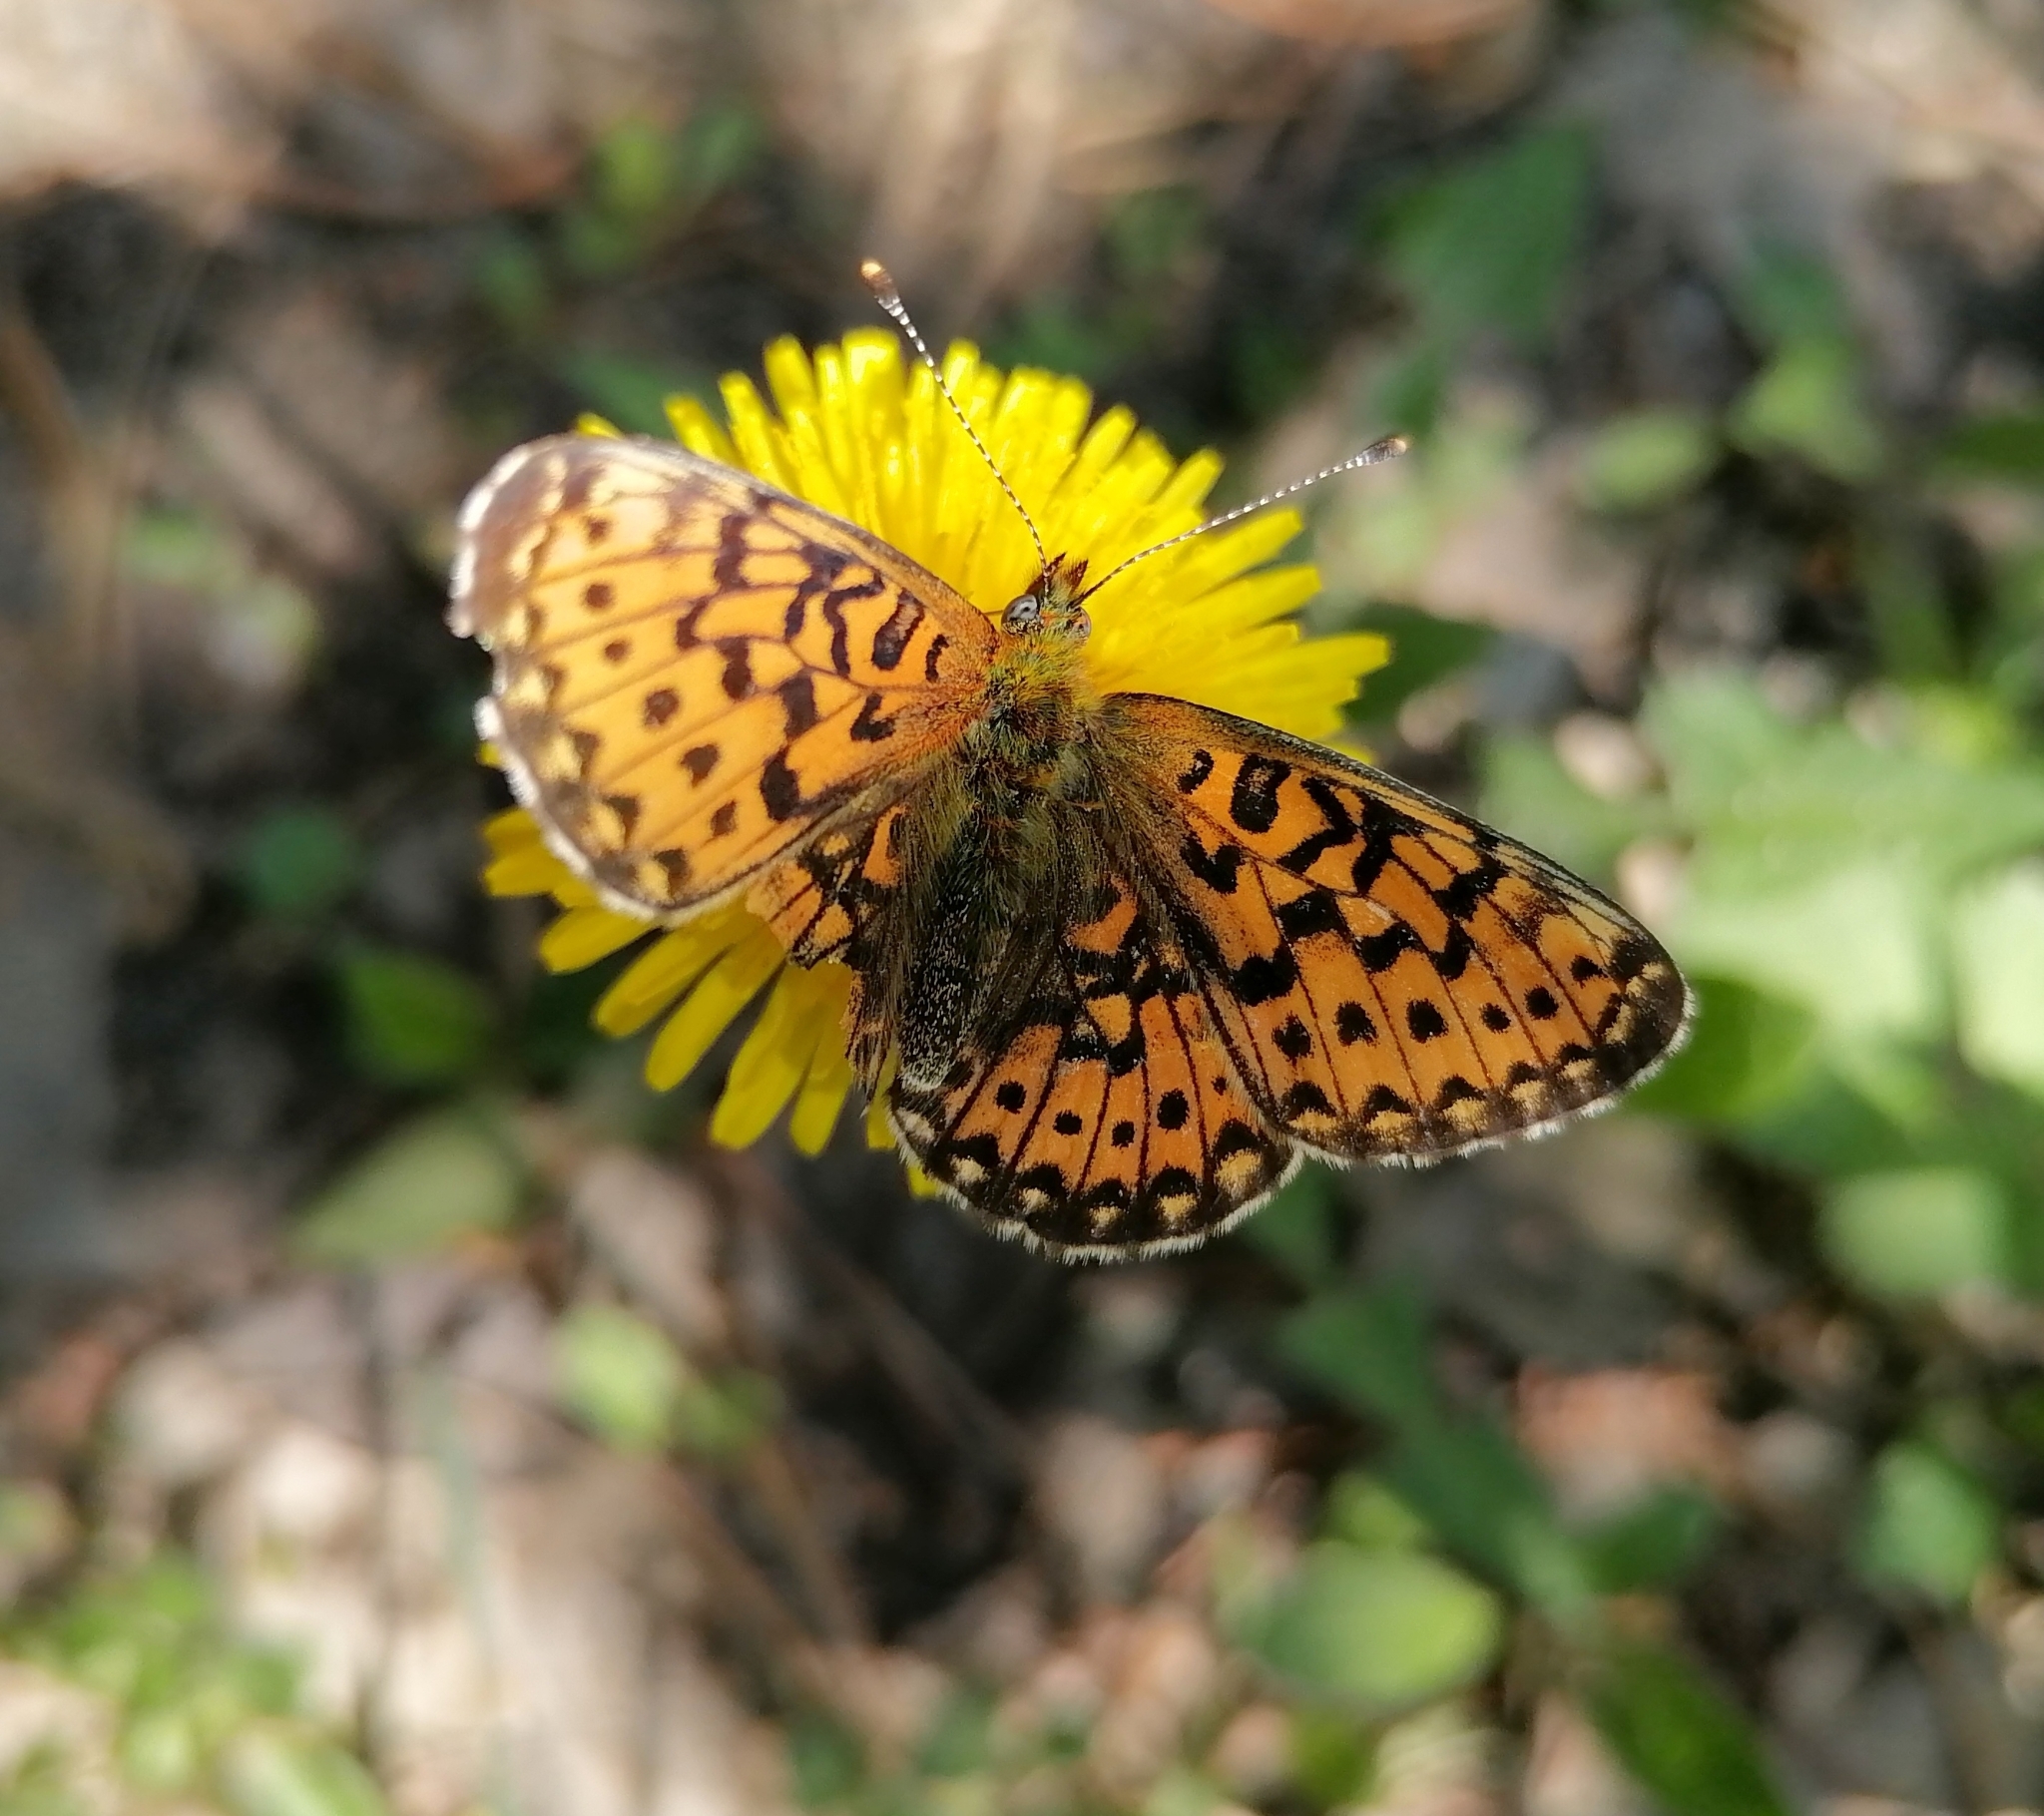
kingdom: Animalia
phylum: Arthropoda
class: Insecta
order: Lepidoptera
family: Nymphalidae
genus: Clossiana
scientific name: Clossiana euphrosyne
